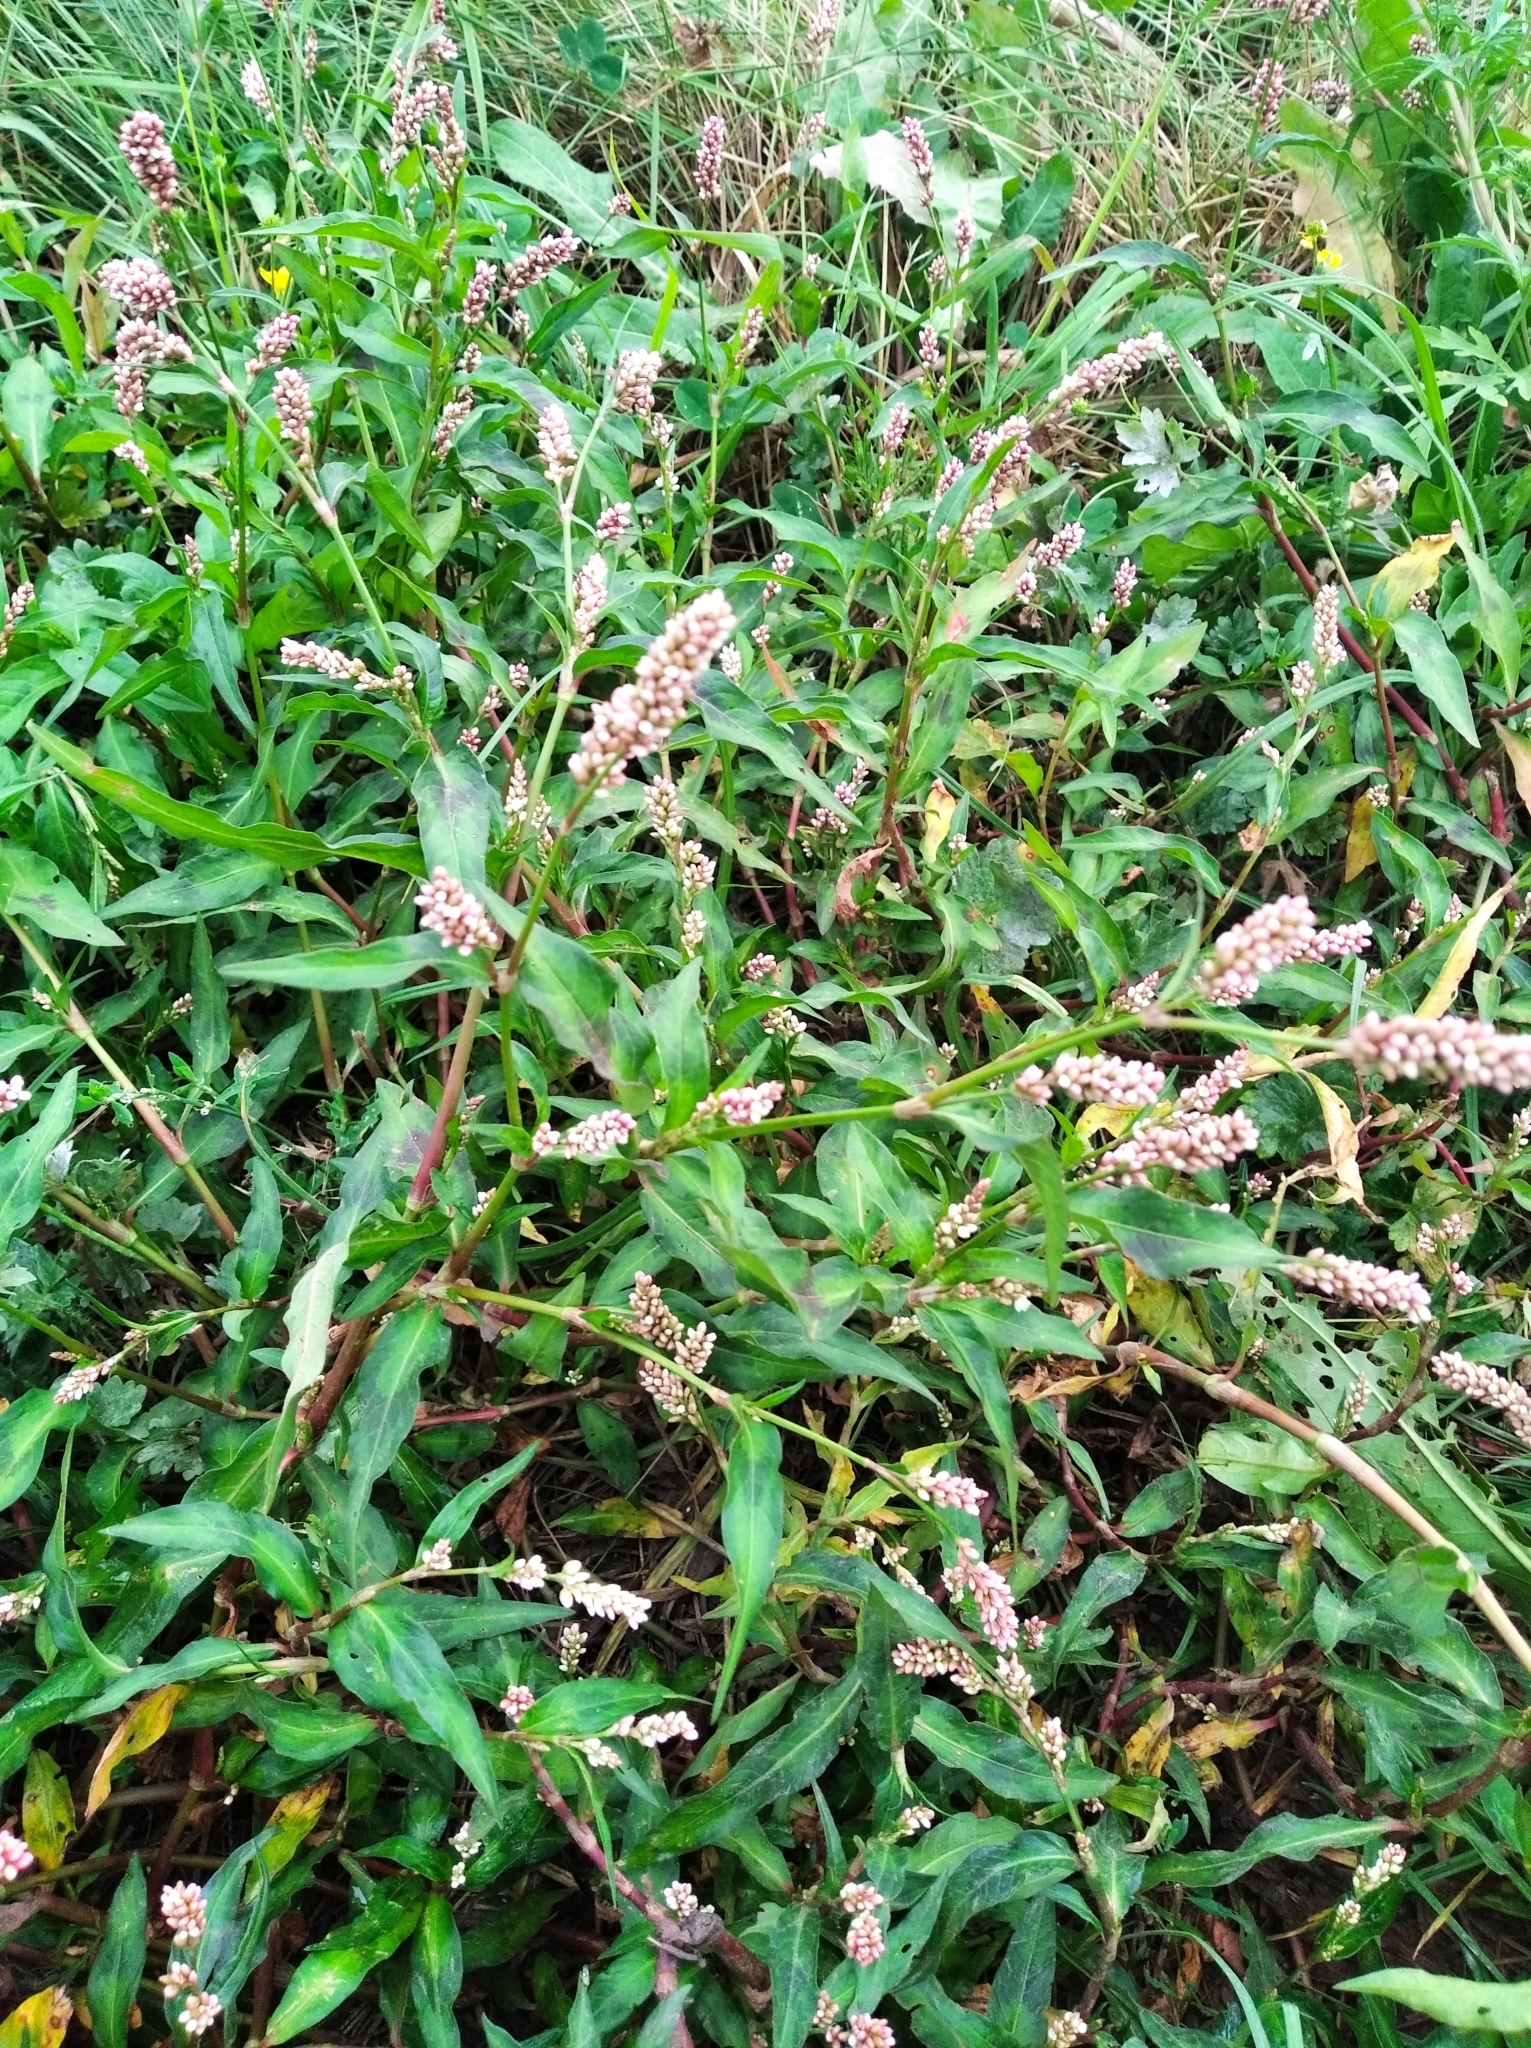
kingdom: Plantae
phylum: Tracheophyta
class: Magnoliopsida
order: Caryophyllales
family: Polygonaceae
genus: Persicaria
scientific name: Persicaria maculosa
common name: Redshank
